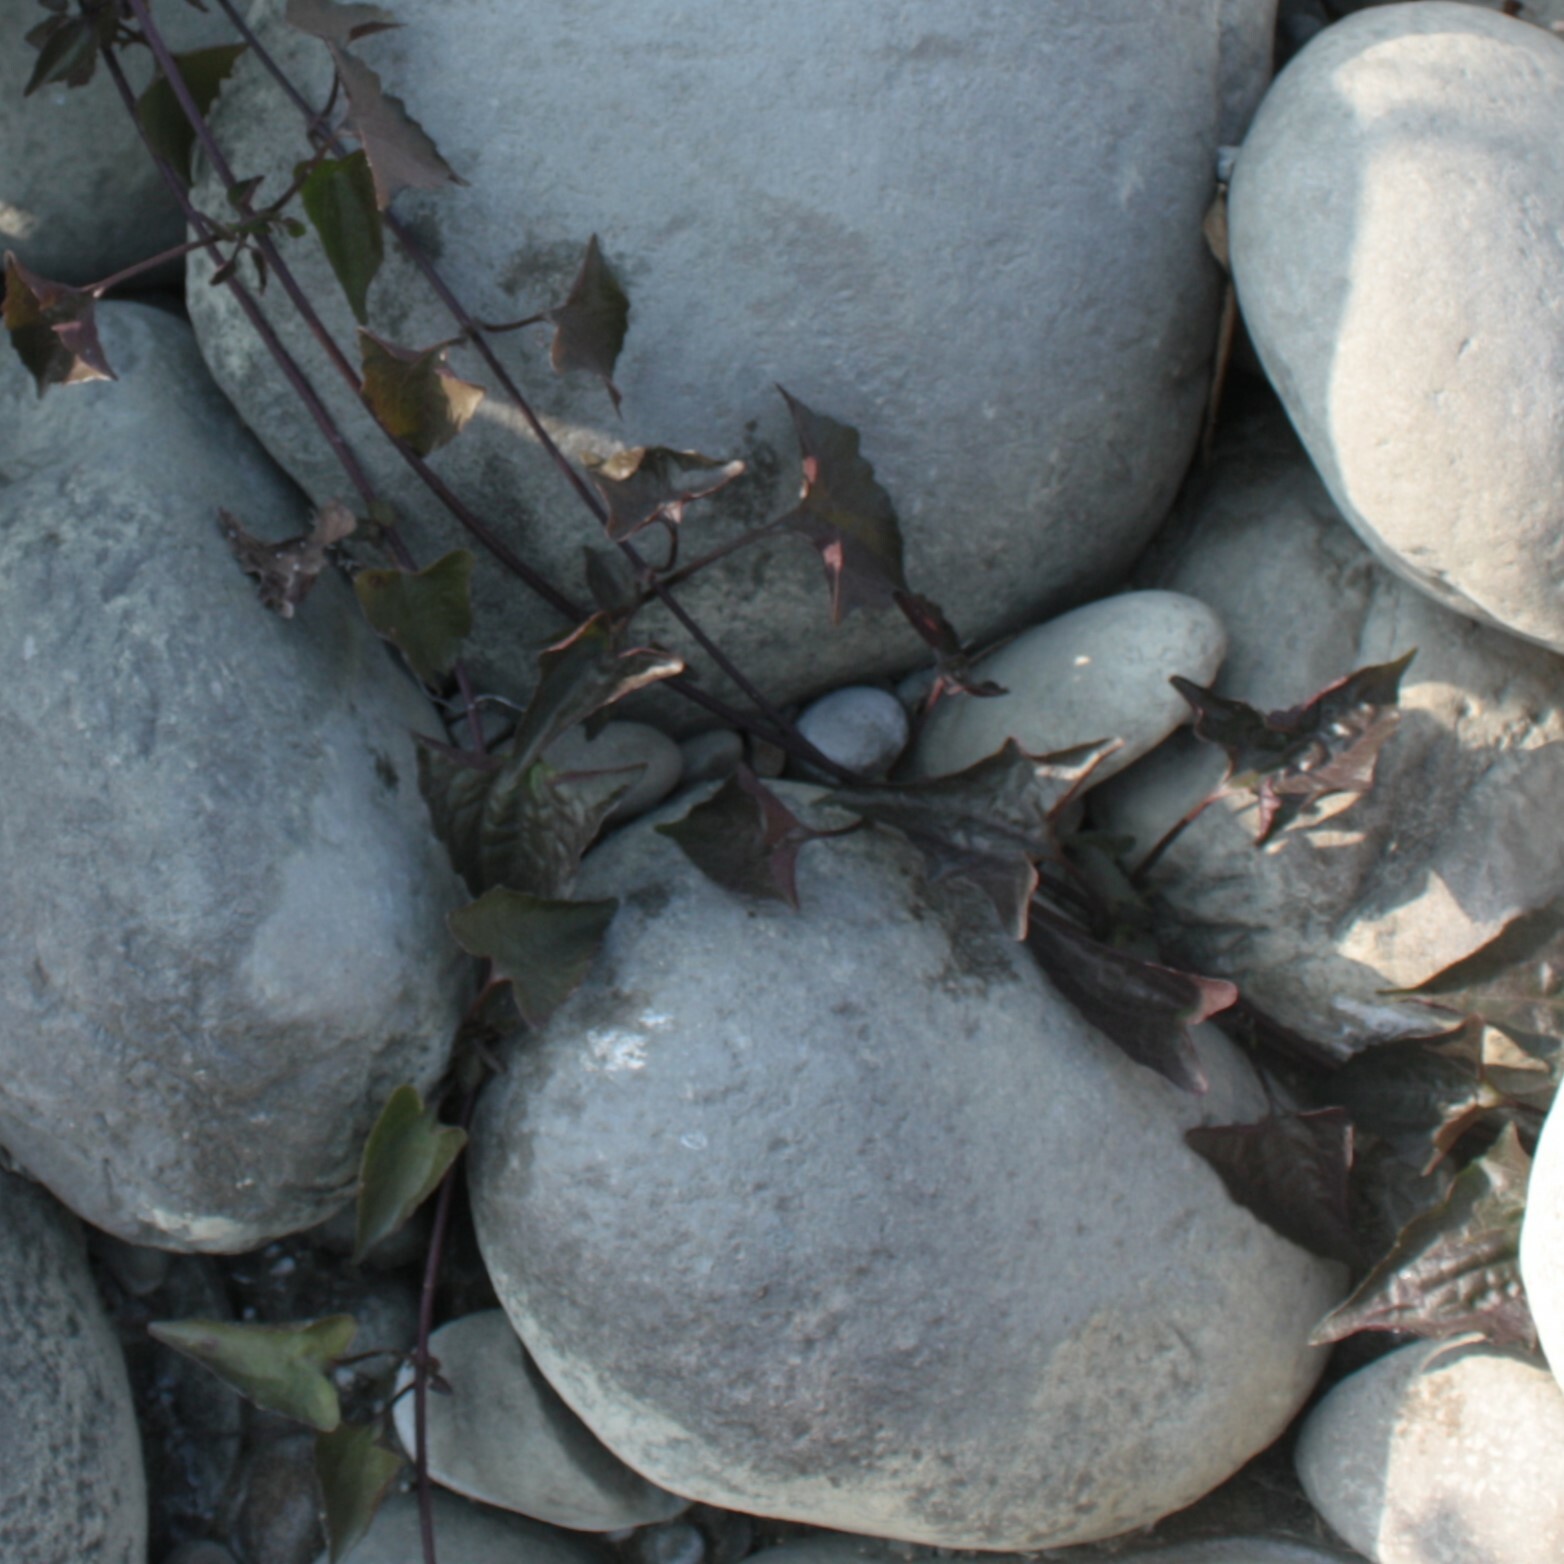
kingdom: Plantae
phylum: Tracheophyta
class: Magnoliopsida
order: Asterales
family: Asteraceae
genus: Mikania
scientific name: Mikania micrantha
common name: Mile-a-minute
